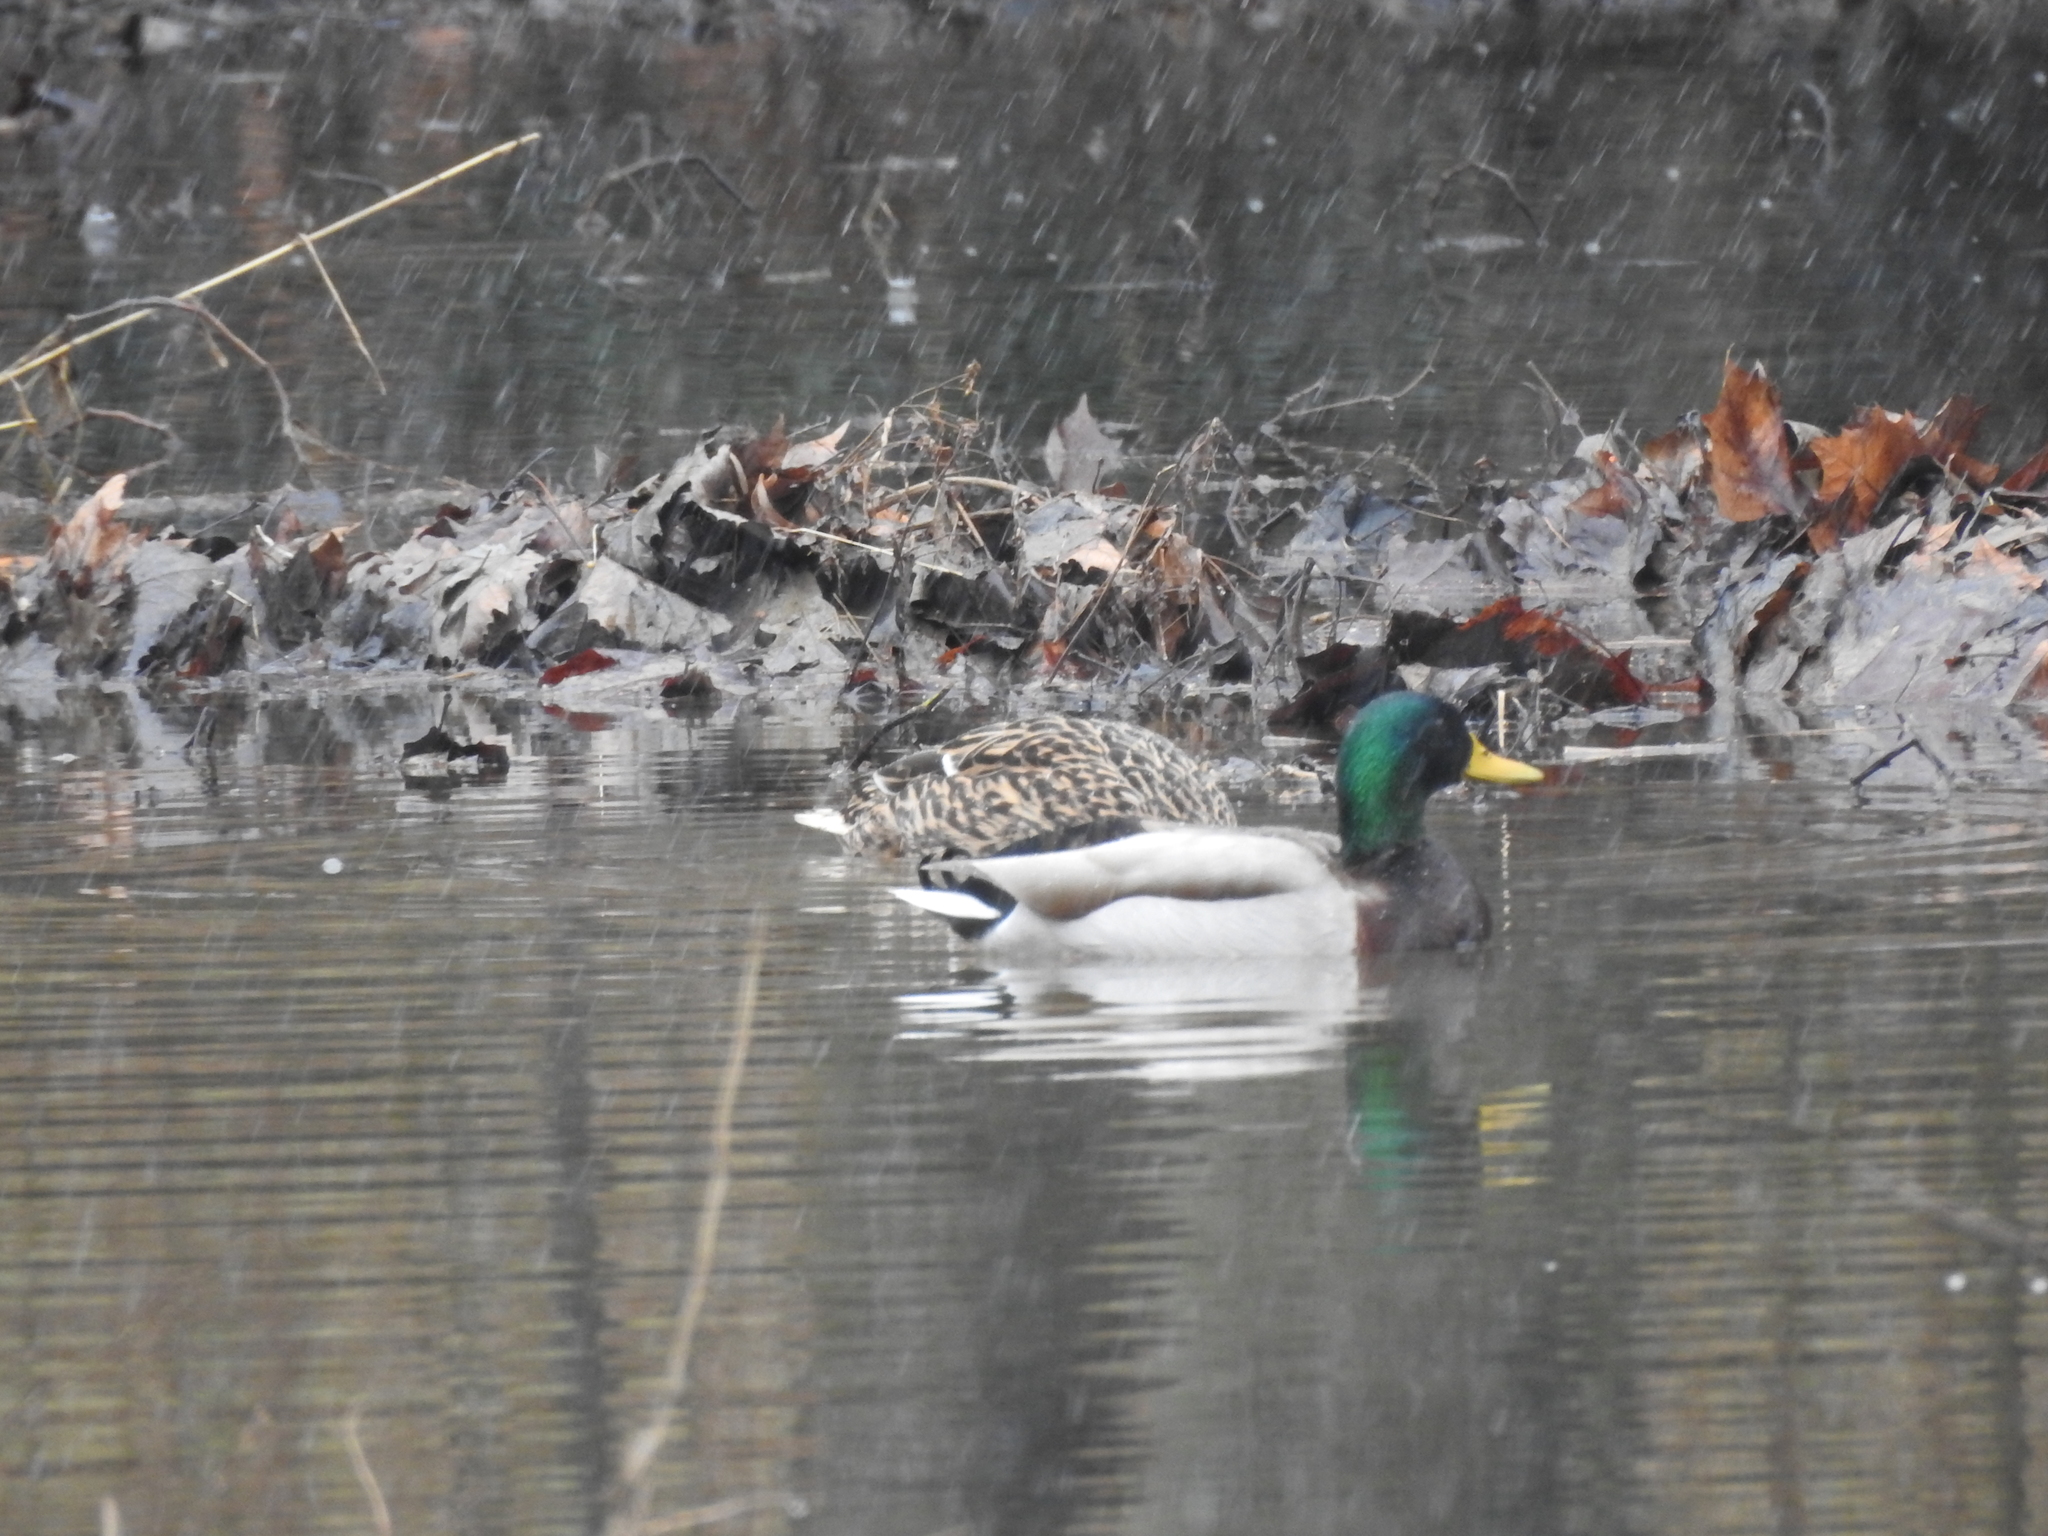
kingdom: Animalia
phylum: Chordata
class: Aves
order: Anseriformes
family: Anatidae
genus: Anas
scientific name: Anas platyrhynchos
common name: Mallard
